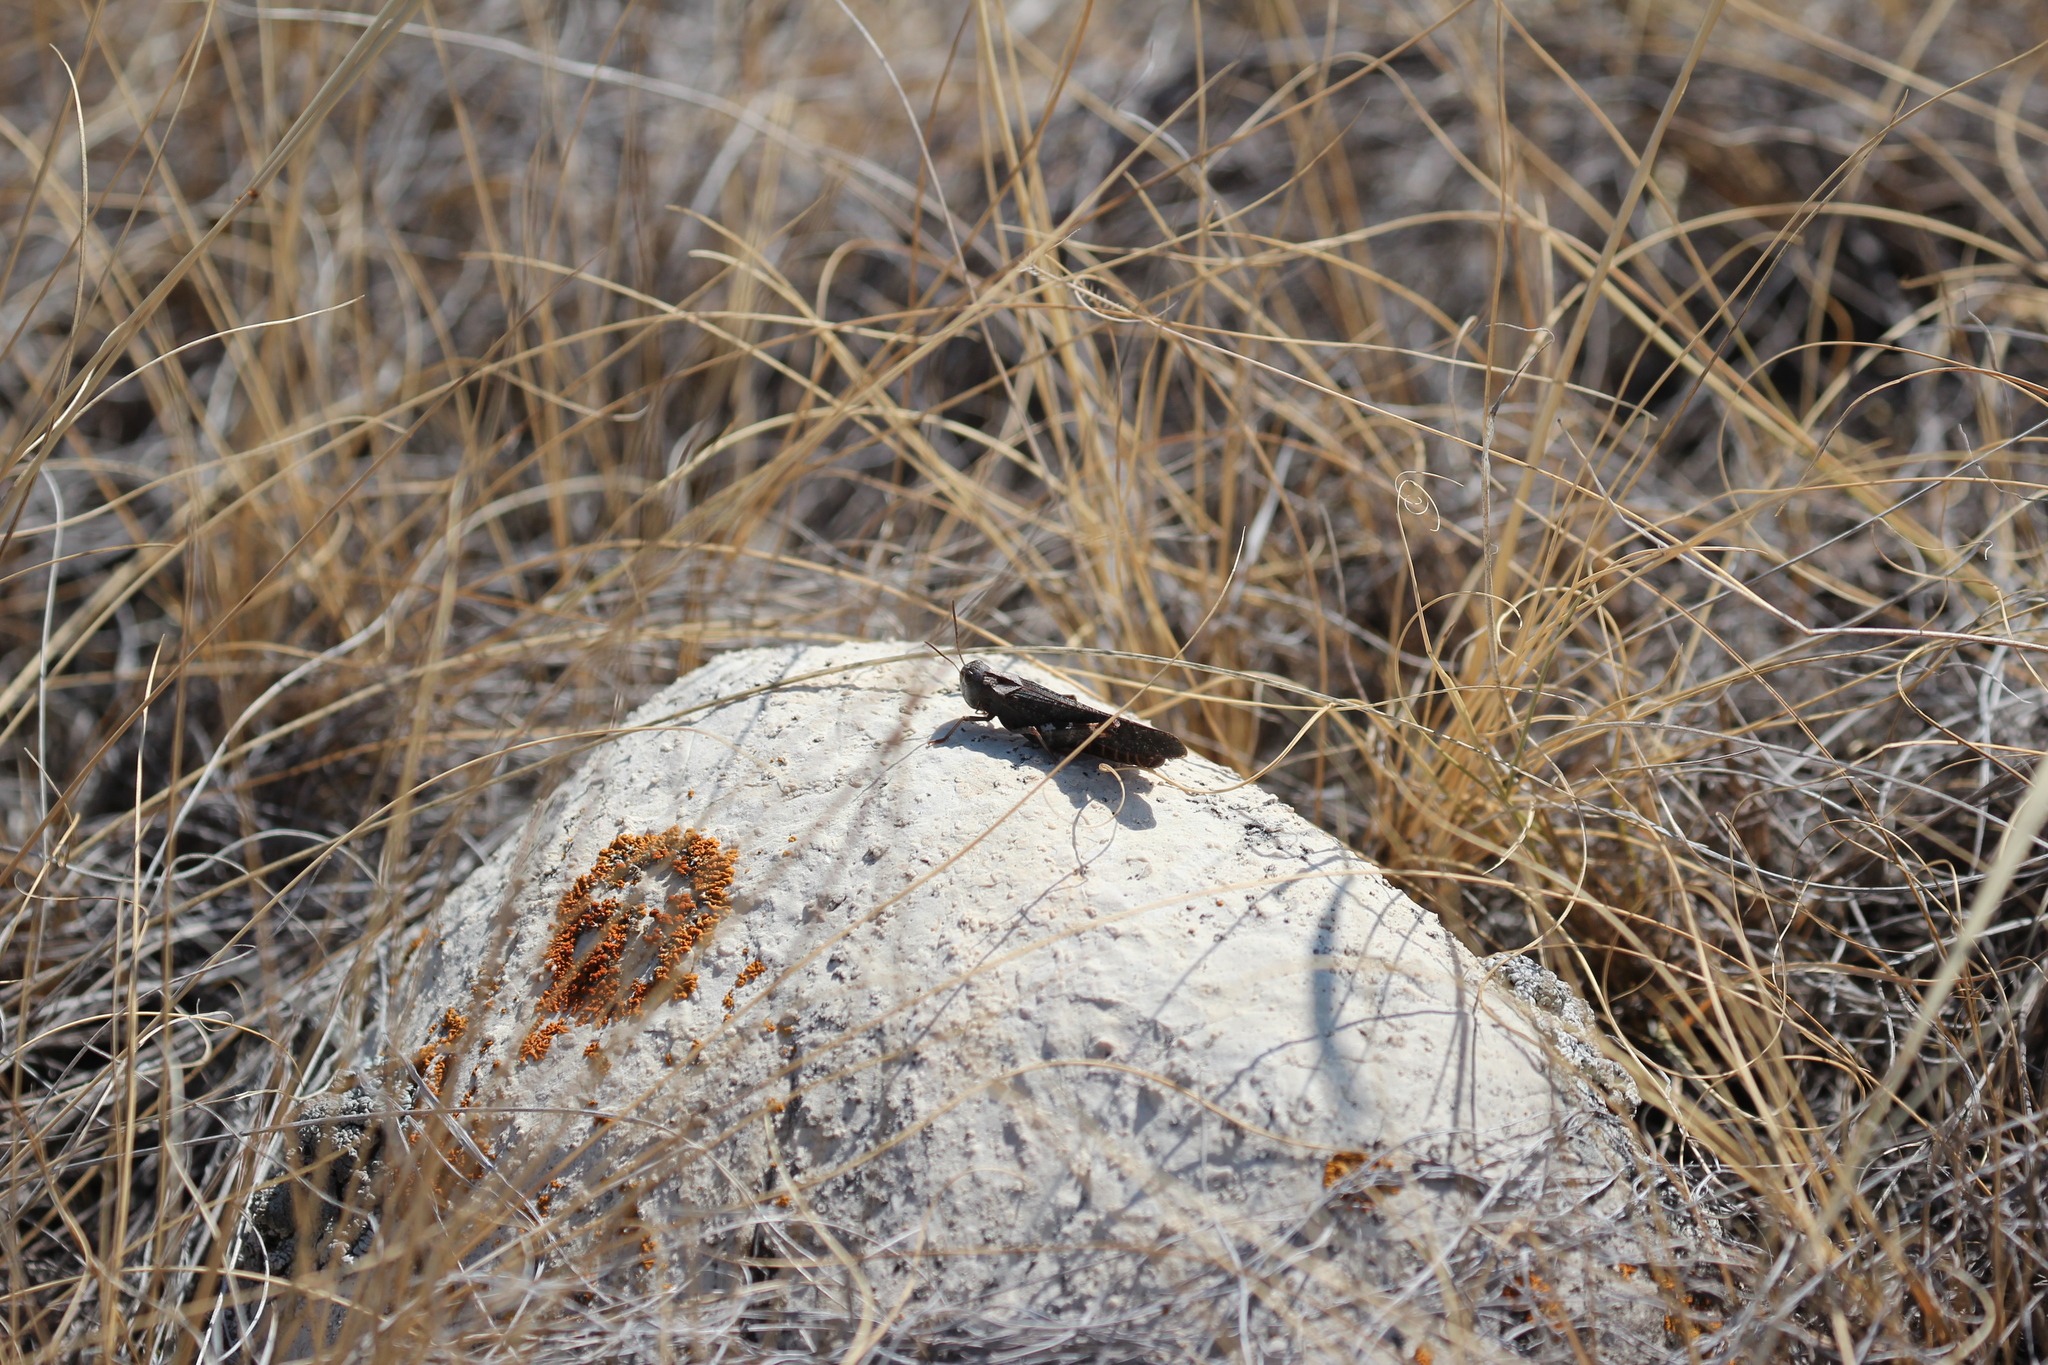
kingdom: Animalia
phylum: Arthropoda
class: Insecta
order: Orthoptera
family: Acrididae
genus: Arphia
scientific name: Arphia pseudo-nietana
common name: Red-winged grasshopper
